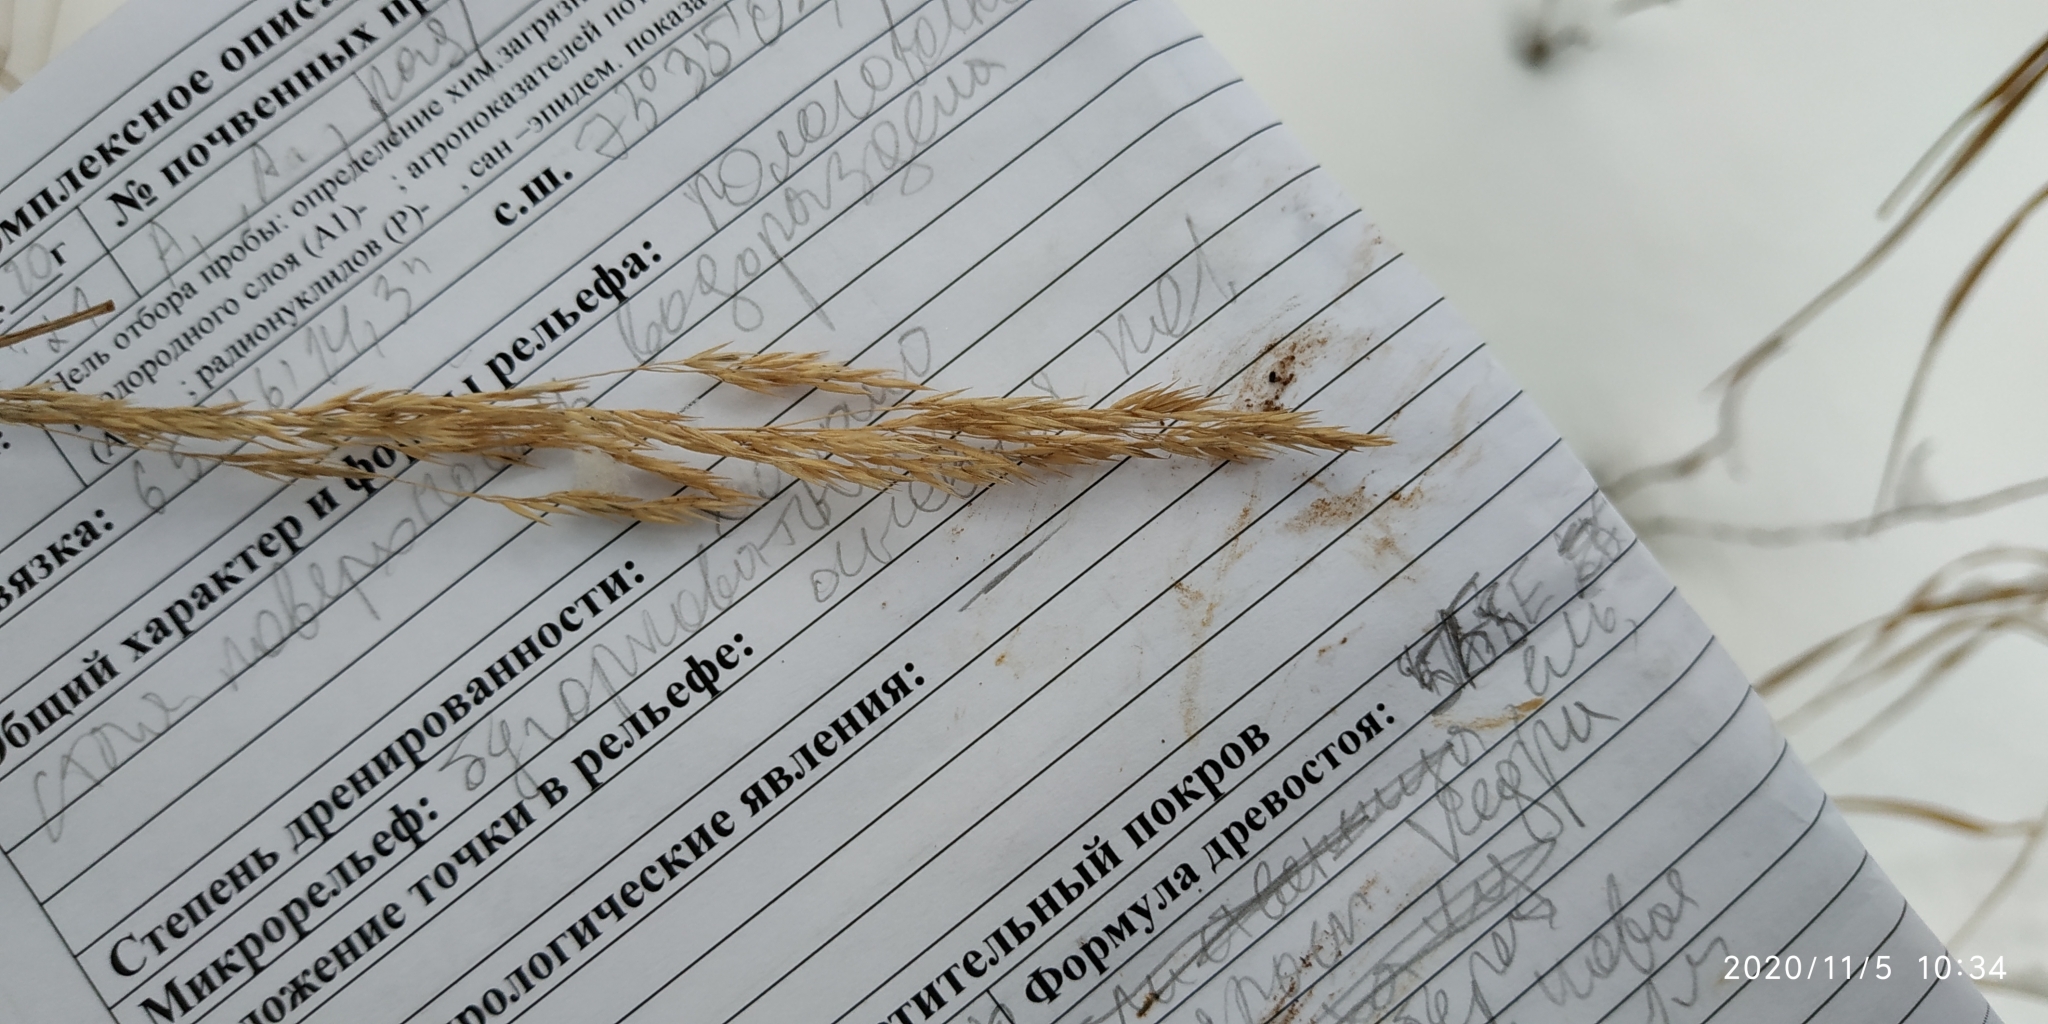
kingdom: Plantae
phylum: Tracheophyta
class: Liliopsida
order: Poales
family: Poaceae
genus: Calamagrostis
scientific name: Calamagrostis purpurea
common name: Scandinavian small-reed
